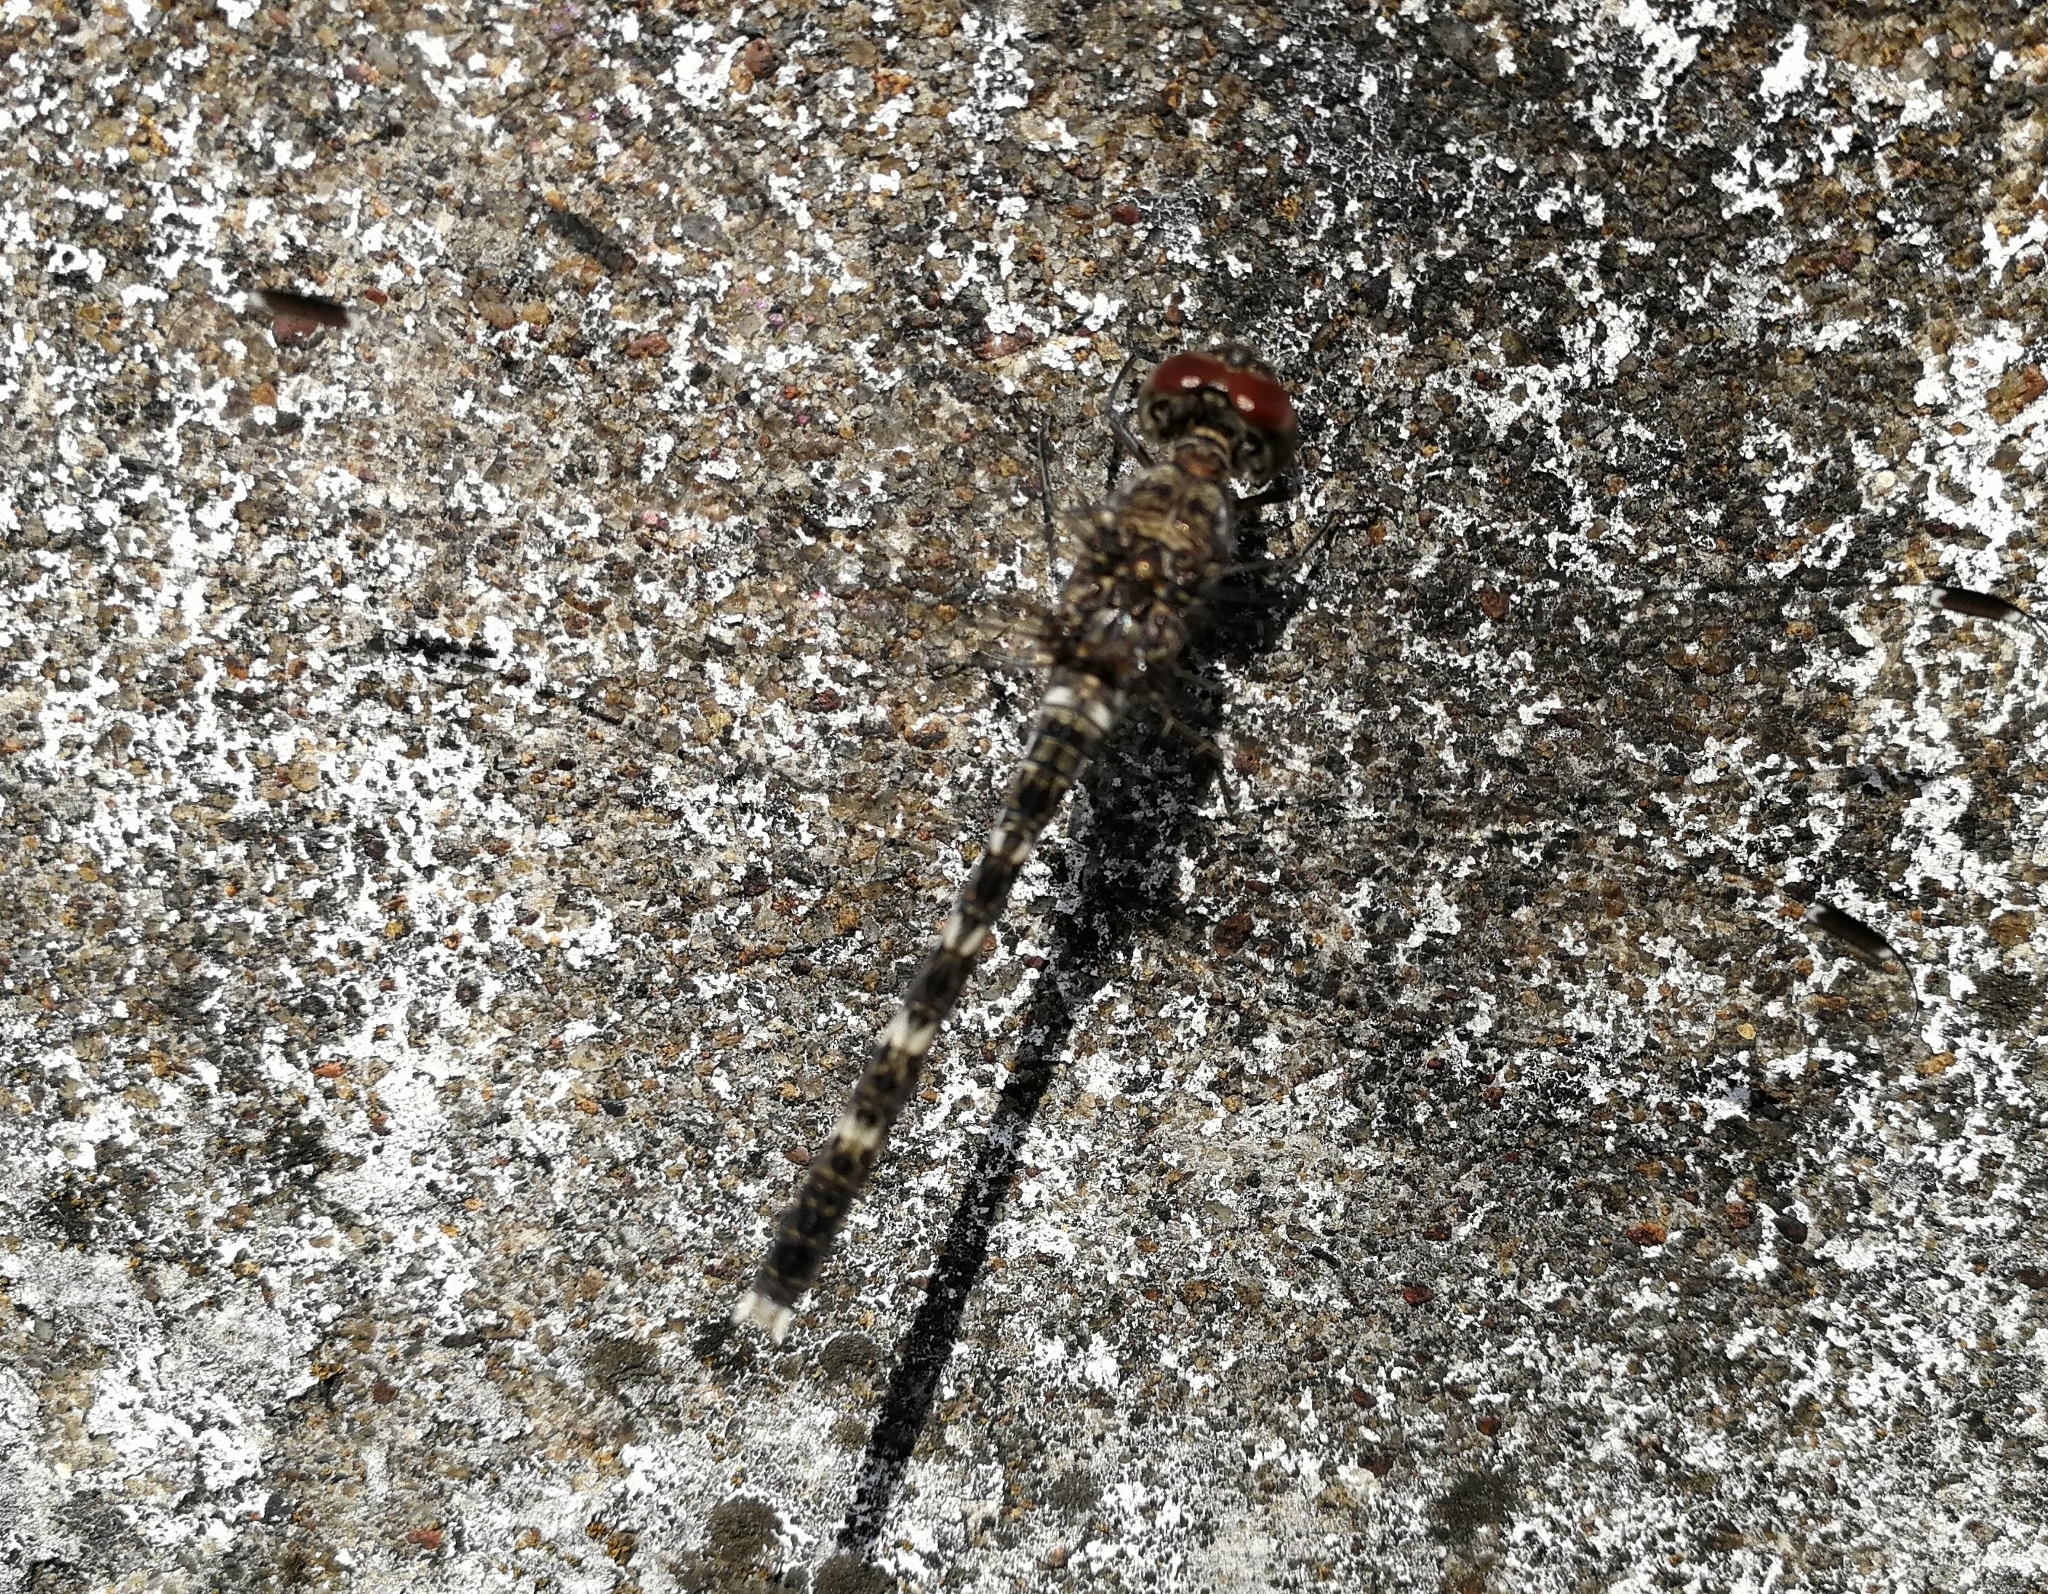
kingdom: Animalia
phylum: Arthropoda
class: Insecta
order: Odonata
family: Libellulidae
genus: Bradinopyga
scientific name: Bradinopyga geminata
